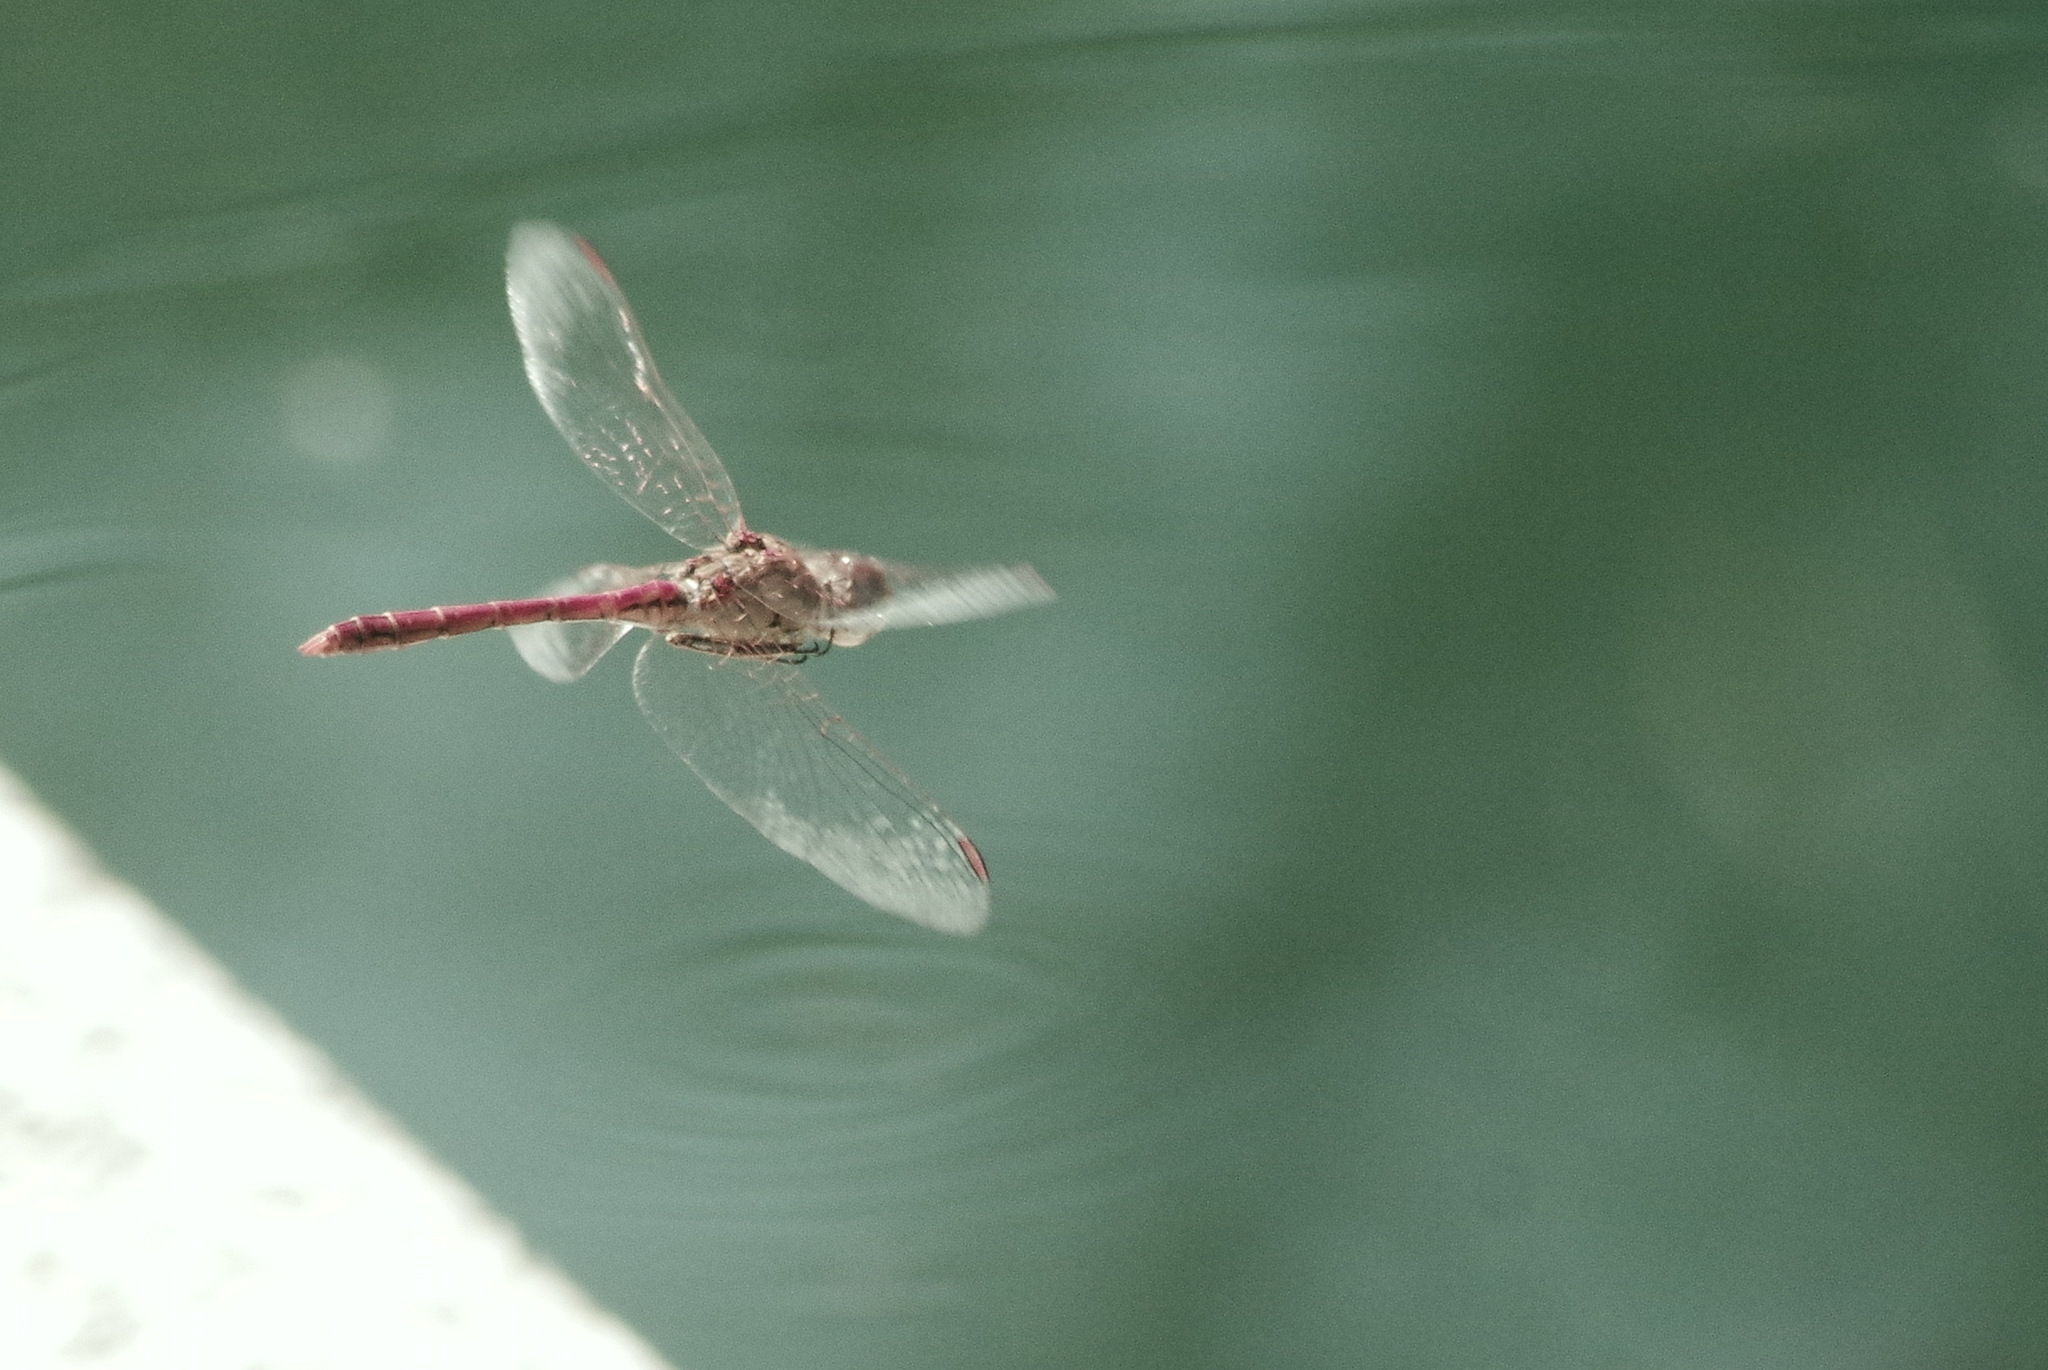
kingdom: Animalia
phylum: Arthropoda
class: Insecta
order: Odonata
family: Libellulidae
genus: Sympetrum
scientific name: Sympetrum sinaiticum
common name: Desert darter
